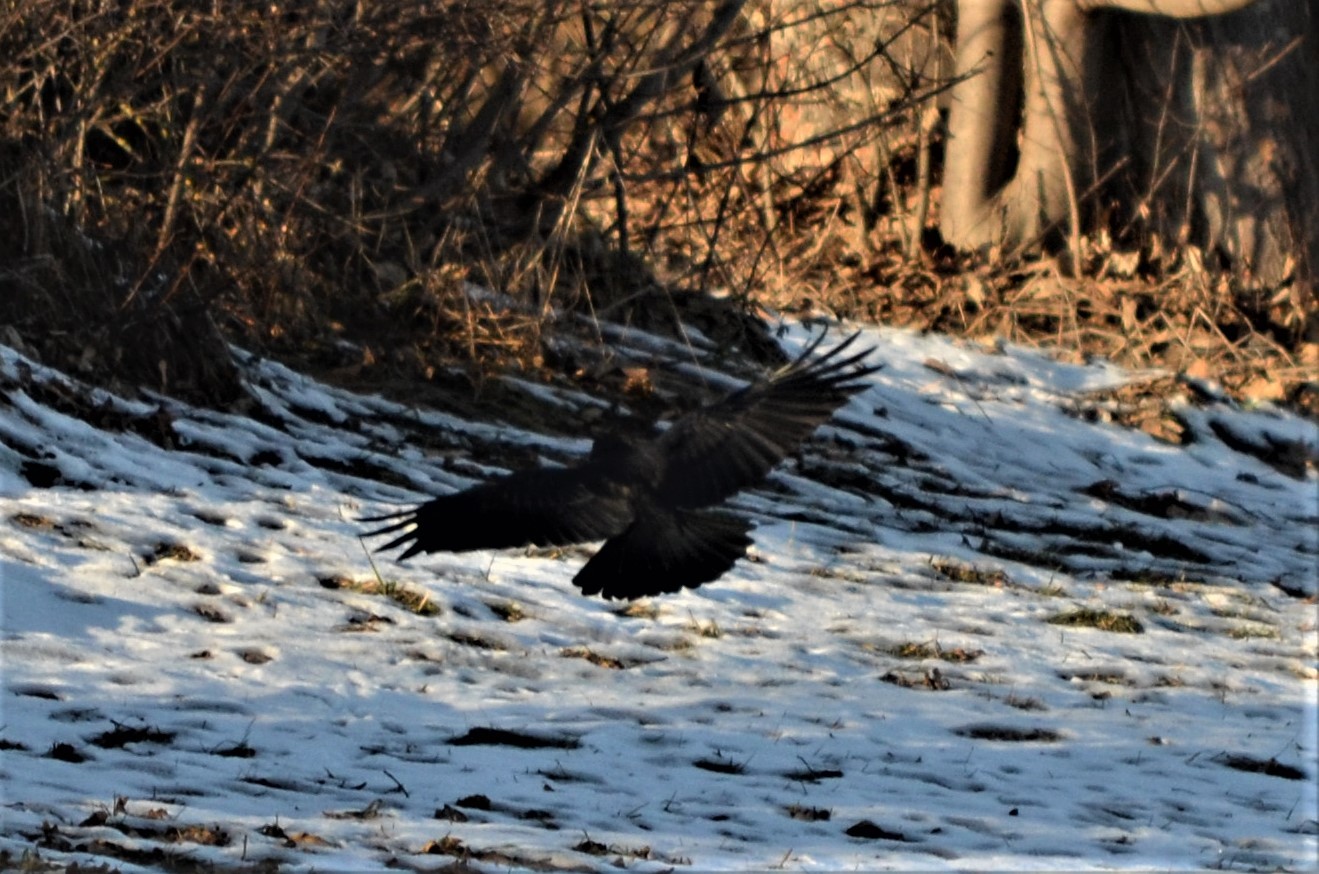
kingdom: Animalia
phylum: Chordata
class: Aves
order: Passeriformes
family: Corvidae
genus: Corvus
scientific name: Corvus corone
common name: Carrion crow
